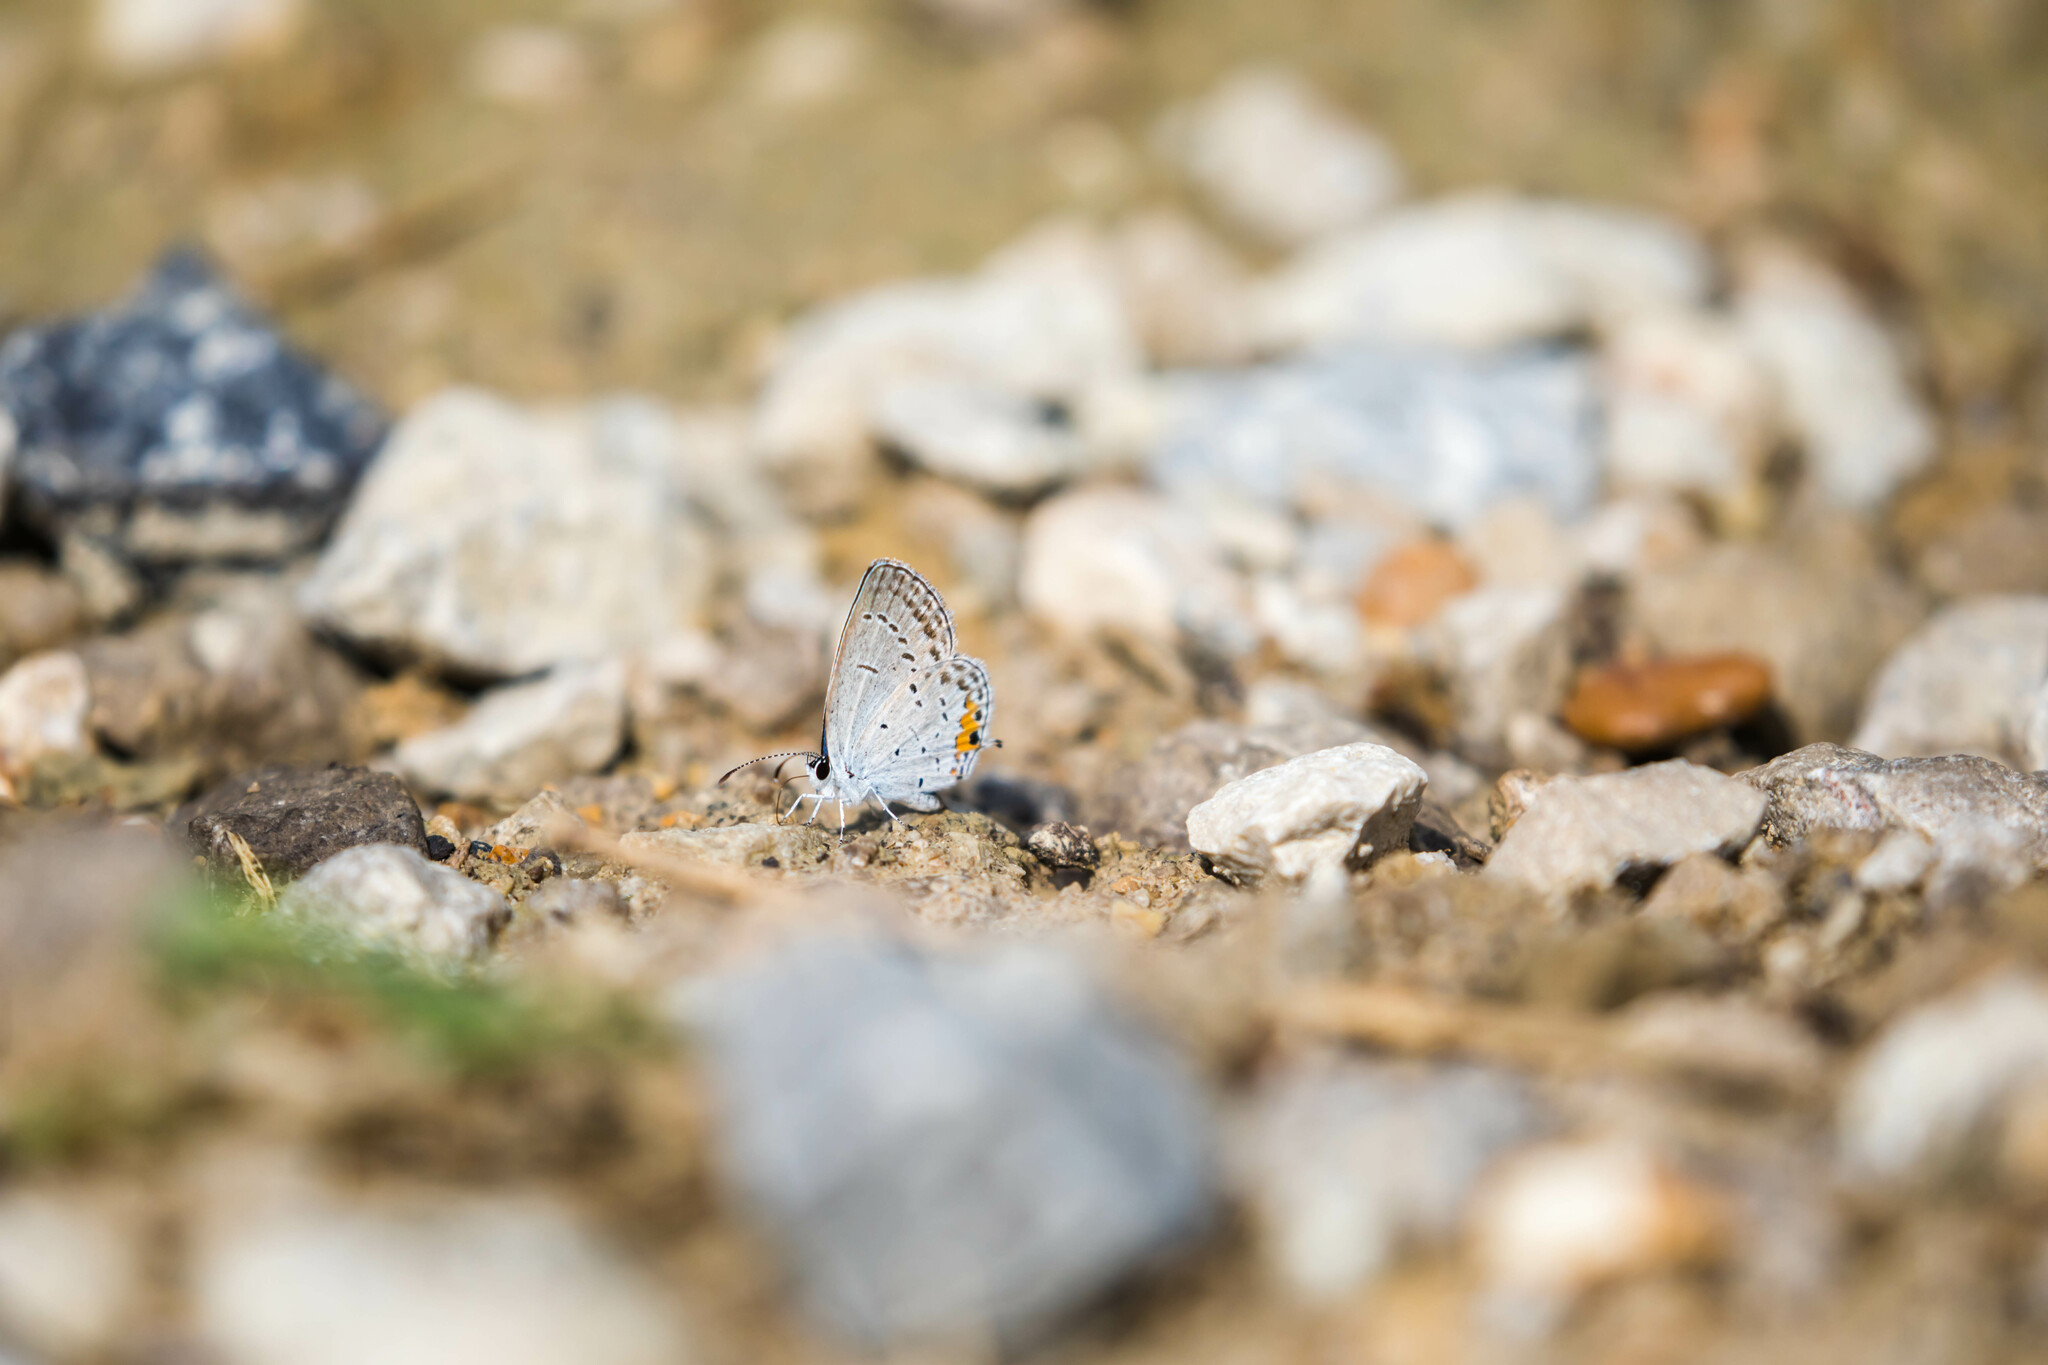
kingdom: Animalia
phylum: Arthropoda
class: Insecta
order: Lepidoptera
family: Lycaenidae
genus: Elkalyce
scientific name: Elkalyce comyntas
